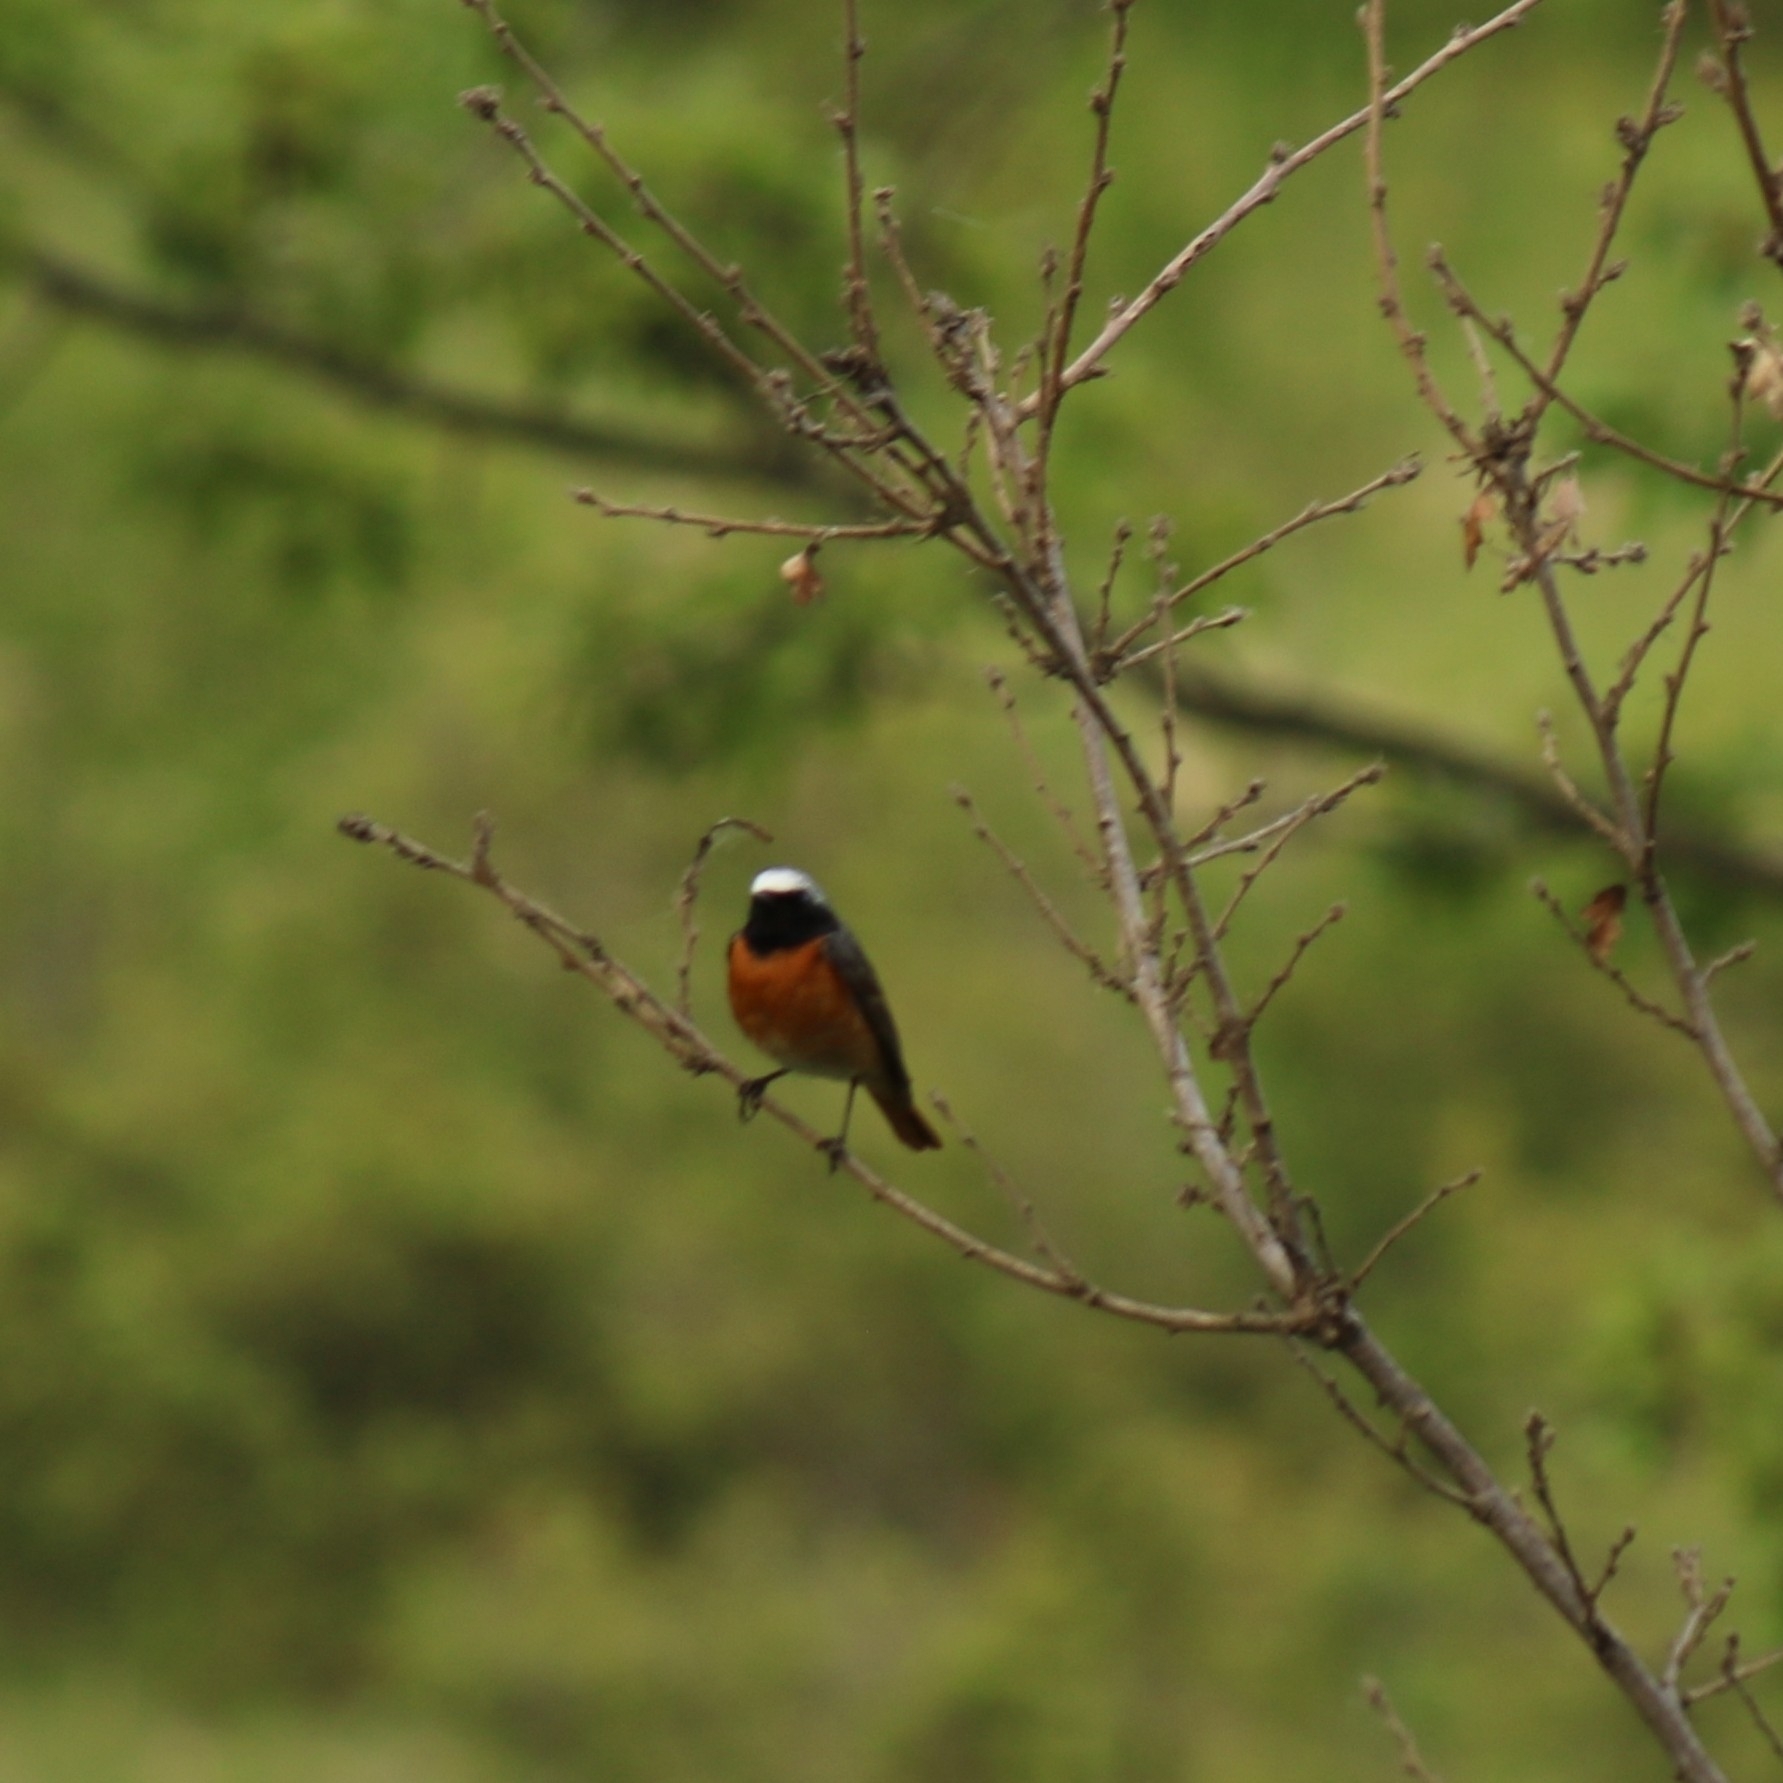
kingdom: Animalia
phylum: Chordata
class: Aves
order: Passeriformes
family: Muscicapidae
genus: Phoenicurus
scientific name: Phoenicurus phoenicurus
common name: Common redstart
